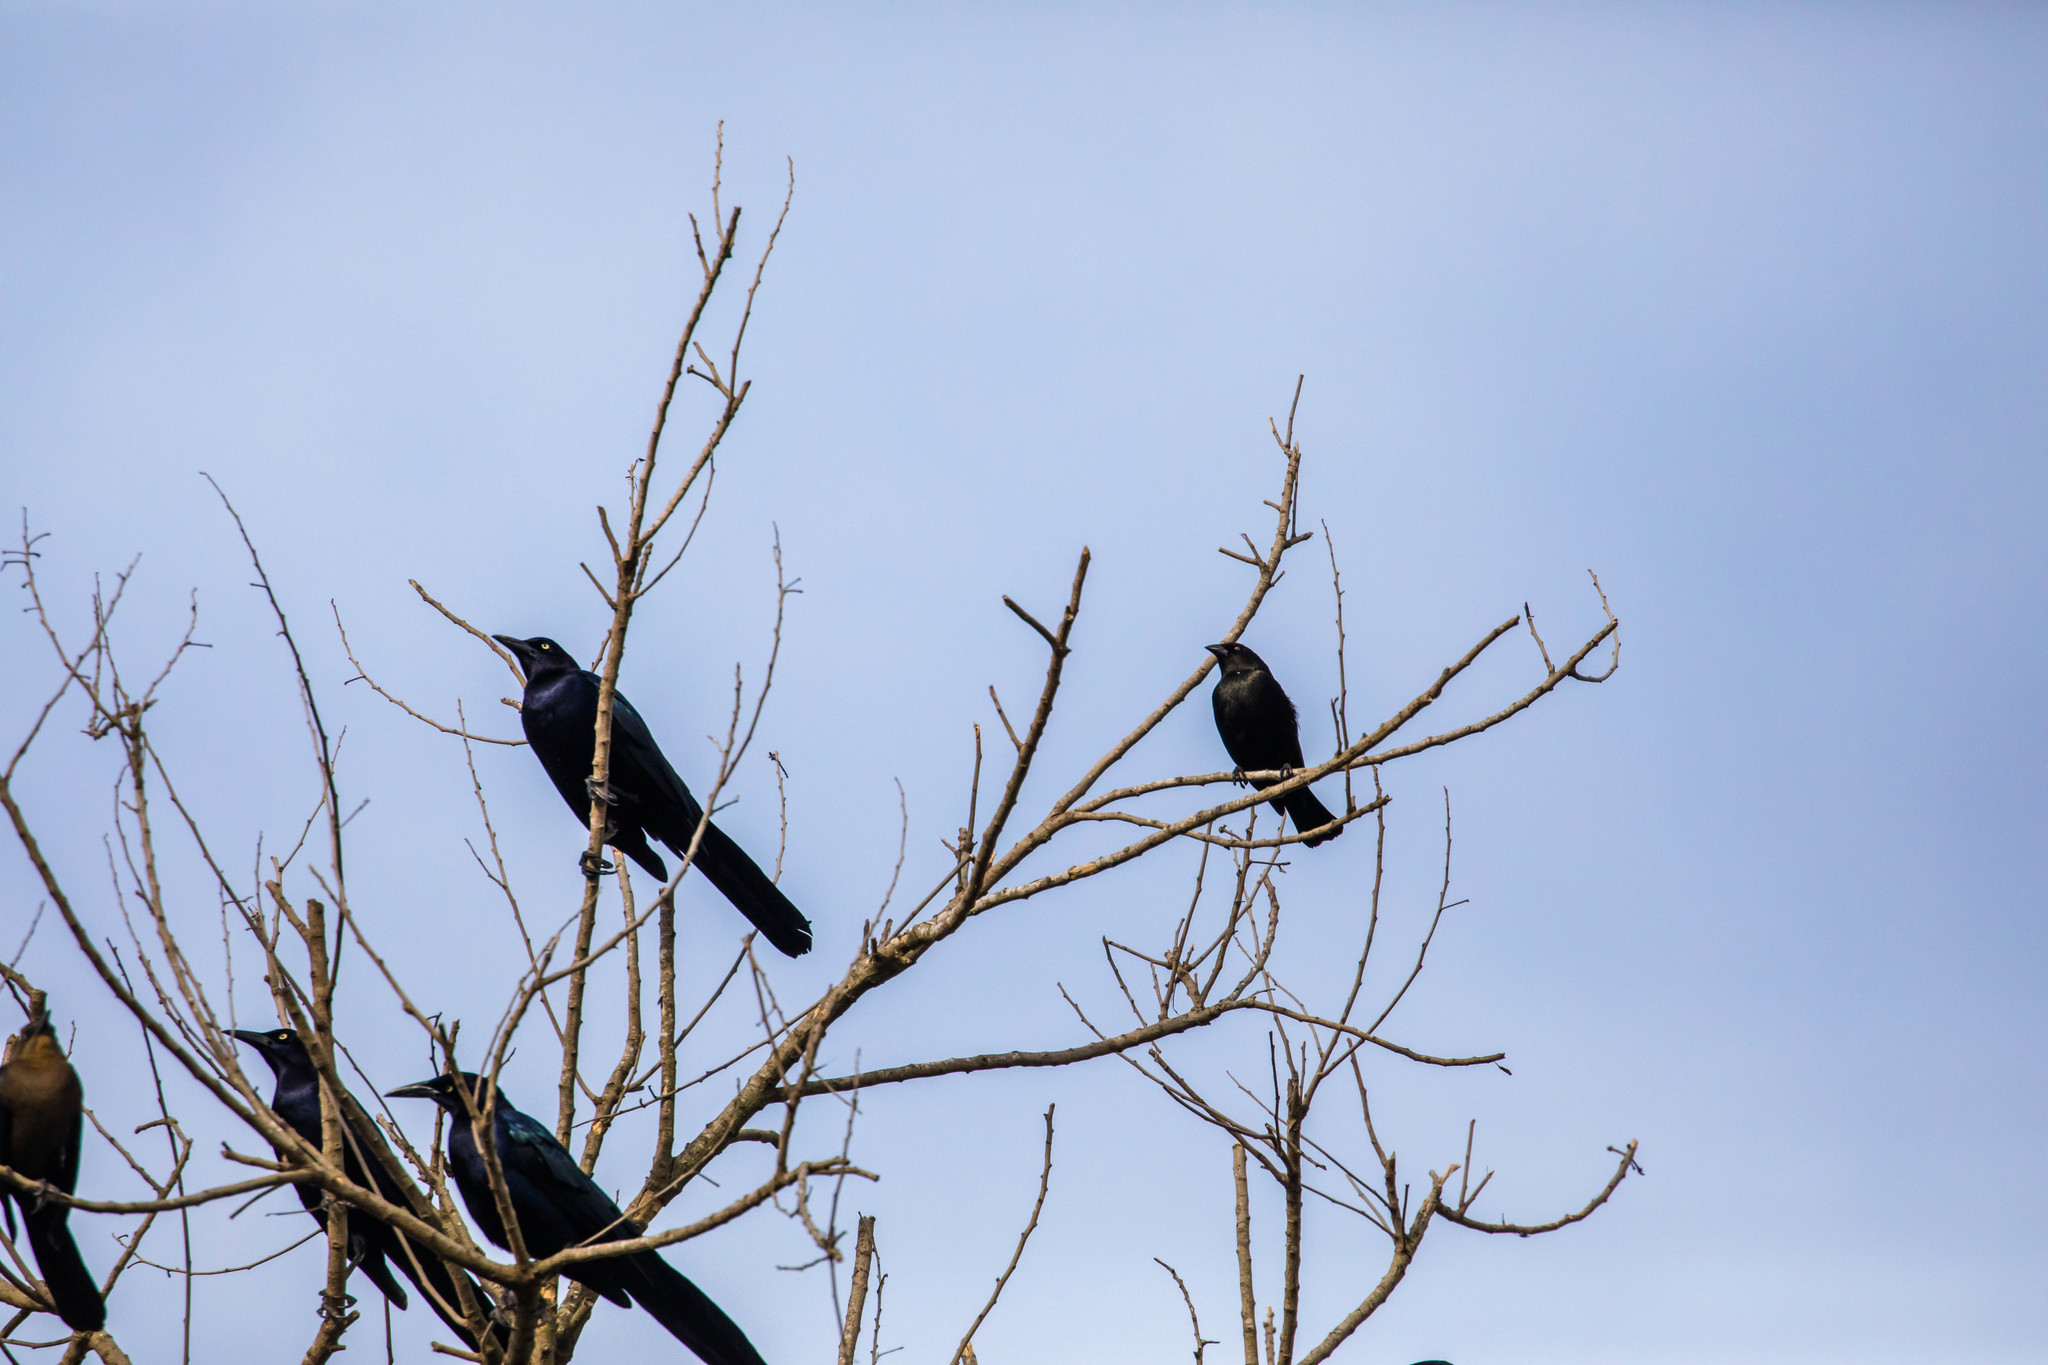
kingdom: Animalia
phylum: Chordata
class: Aves
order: Passeriformes
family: Icteridae
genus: Molothrus
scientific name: Molothrus aeneus
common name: Bronzed cowbird
